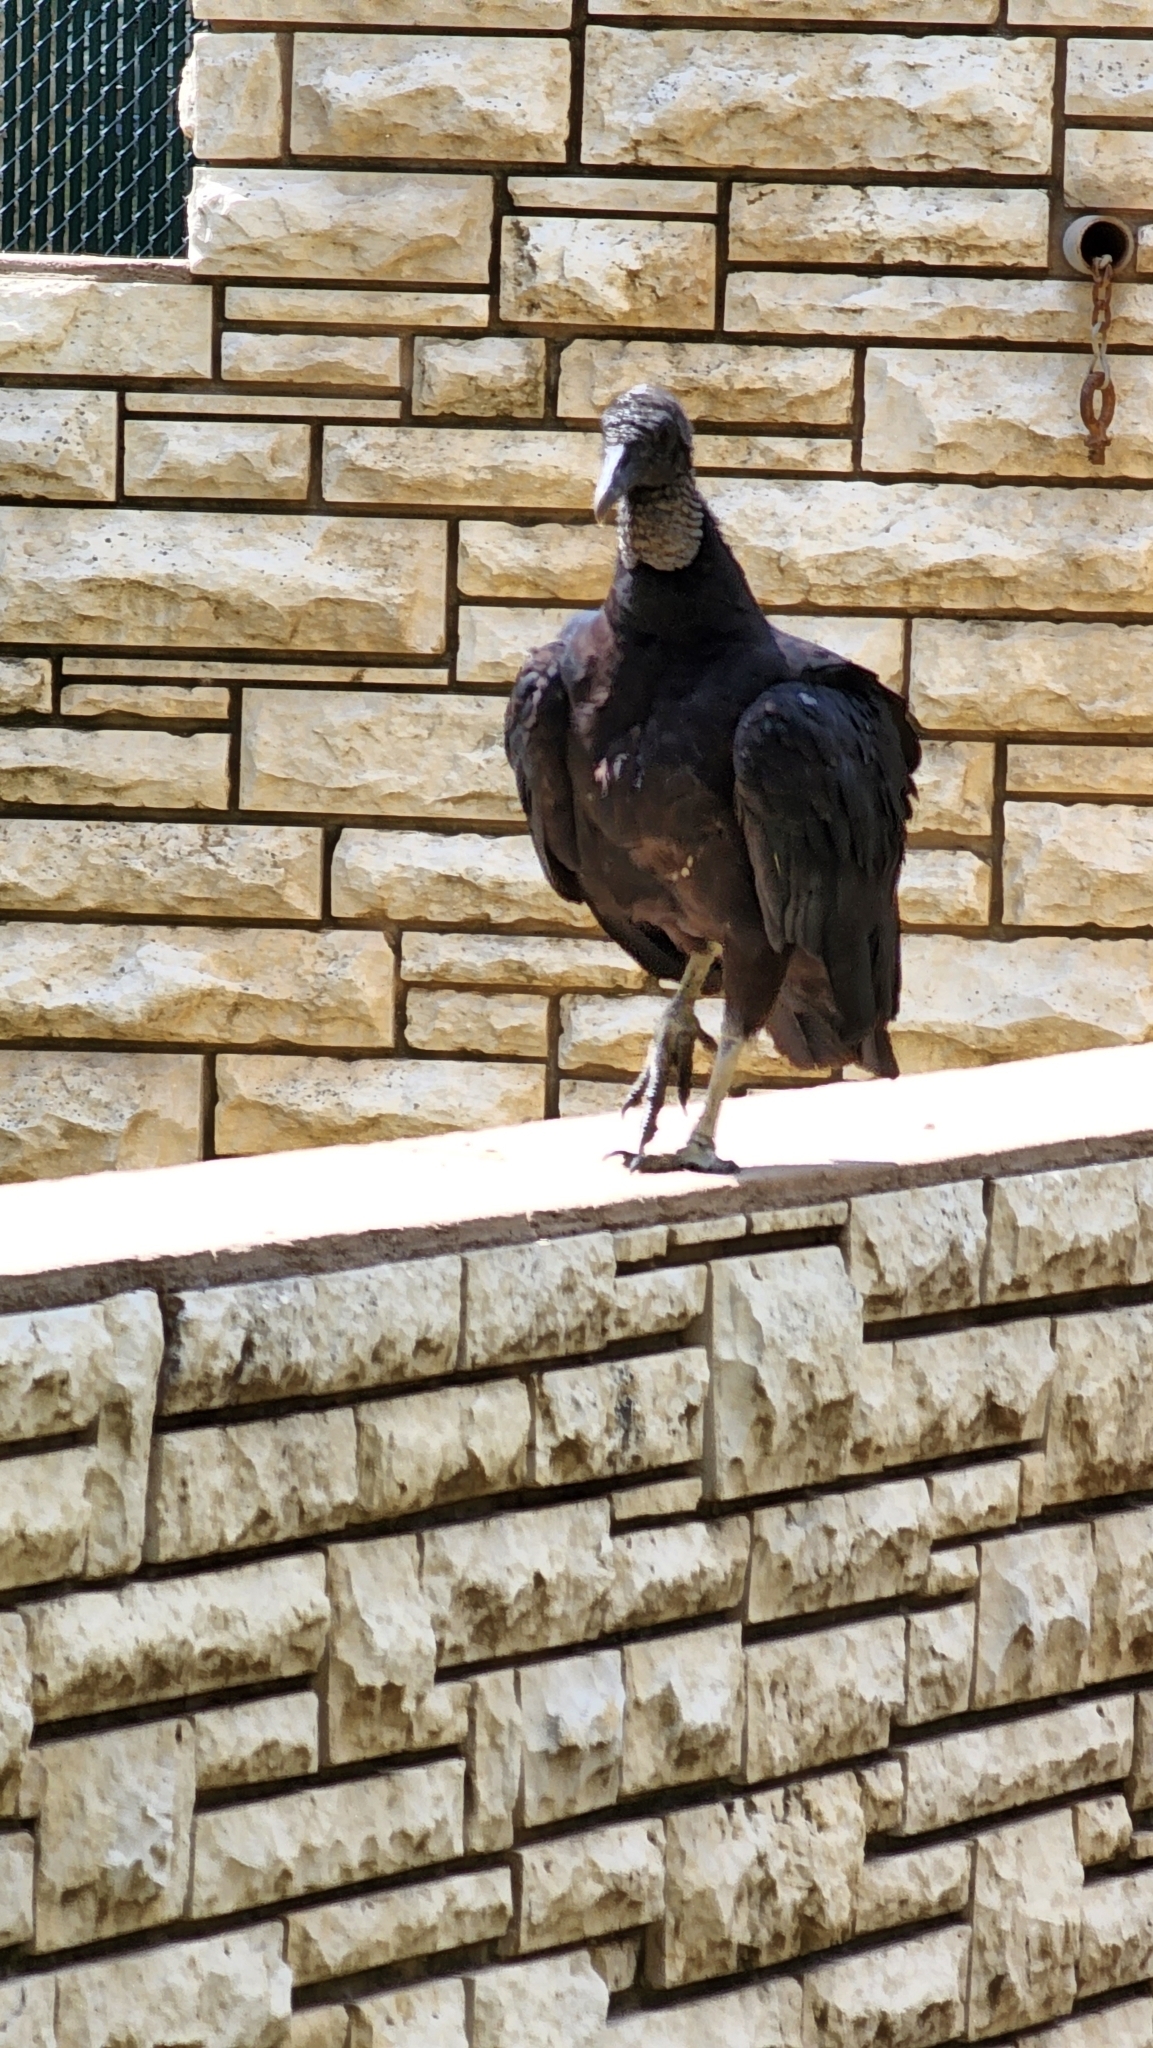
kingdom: Animalia
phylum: Chordata
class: Aves
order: Accipitriformes
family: Cathartidae
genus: Coragyps
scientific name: Coragyps atratus
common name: Black vulture
